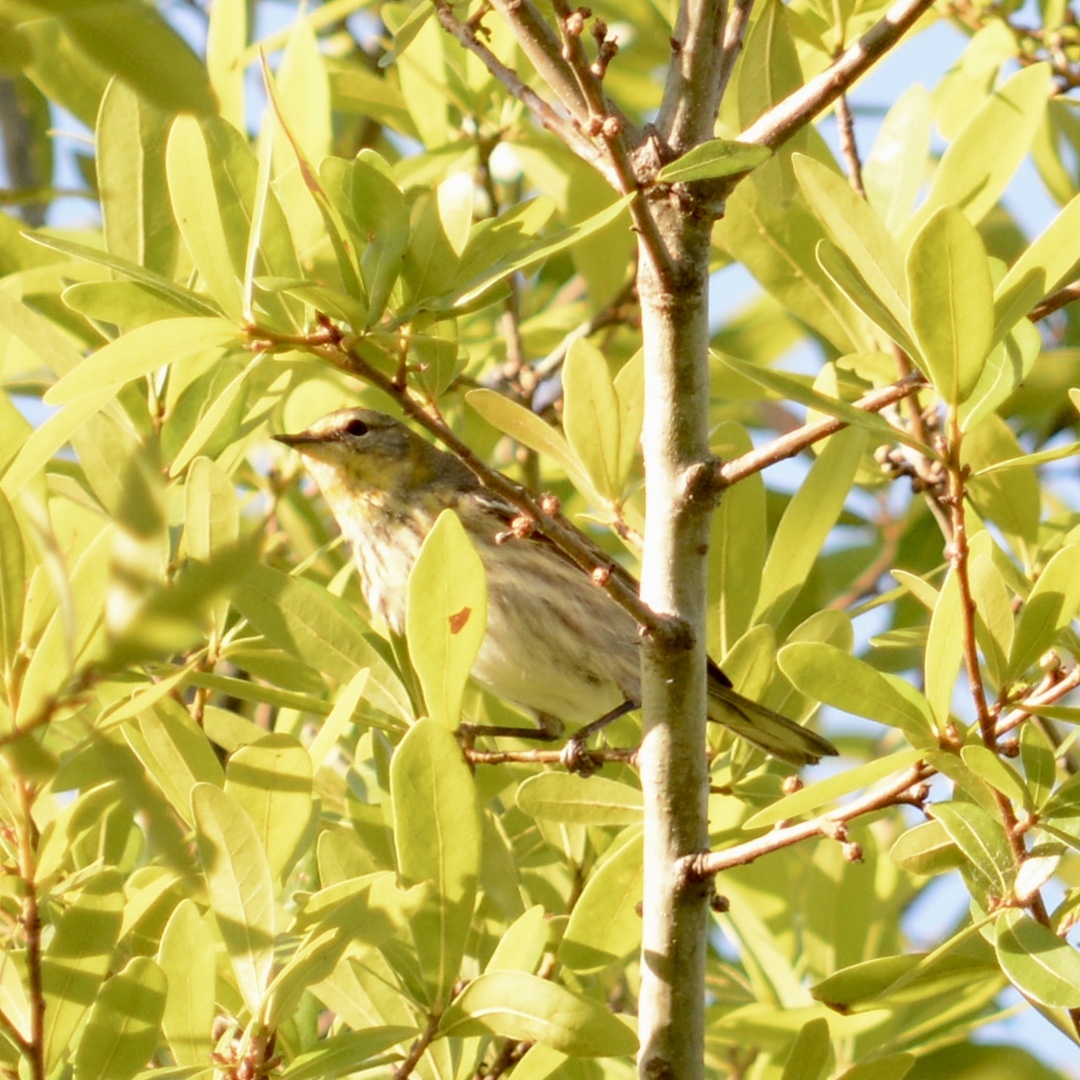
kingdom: Animalia
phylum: Chordata
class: Aves
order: Passeriformes
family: Parulidae
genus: Setophaga
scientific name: Setophaga tigrina
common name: Cape may warbler
